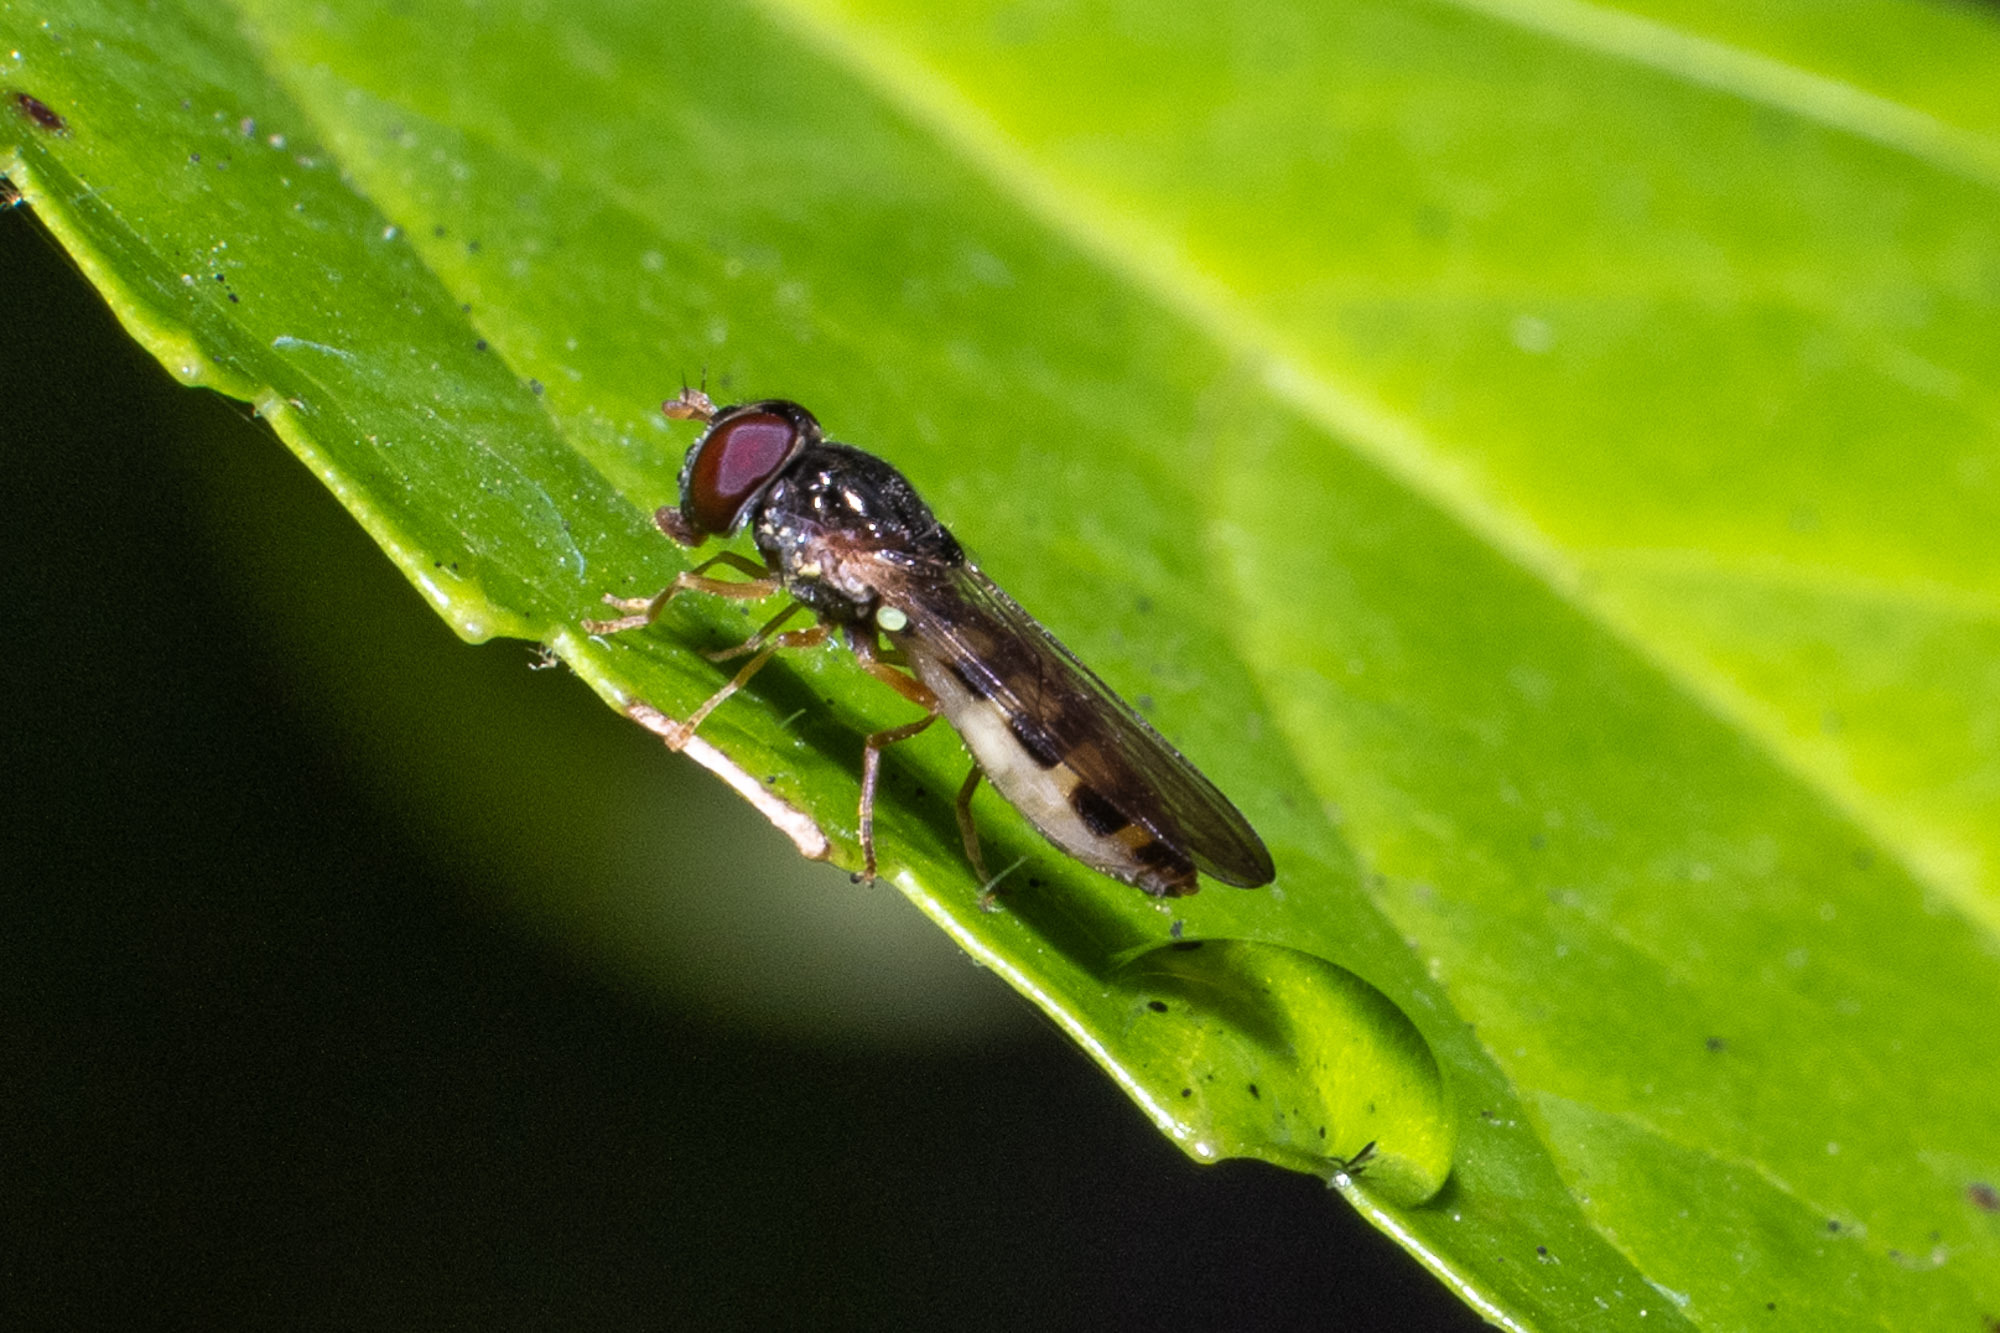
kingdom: Animalia
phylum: Arthropoda
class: Insecta
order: Diptera
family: Syrphidae
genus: Melanostoma
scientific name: Melanostoma mellina
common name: Hover fly
